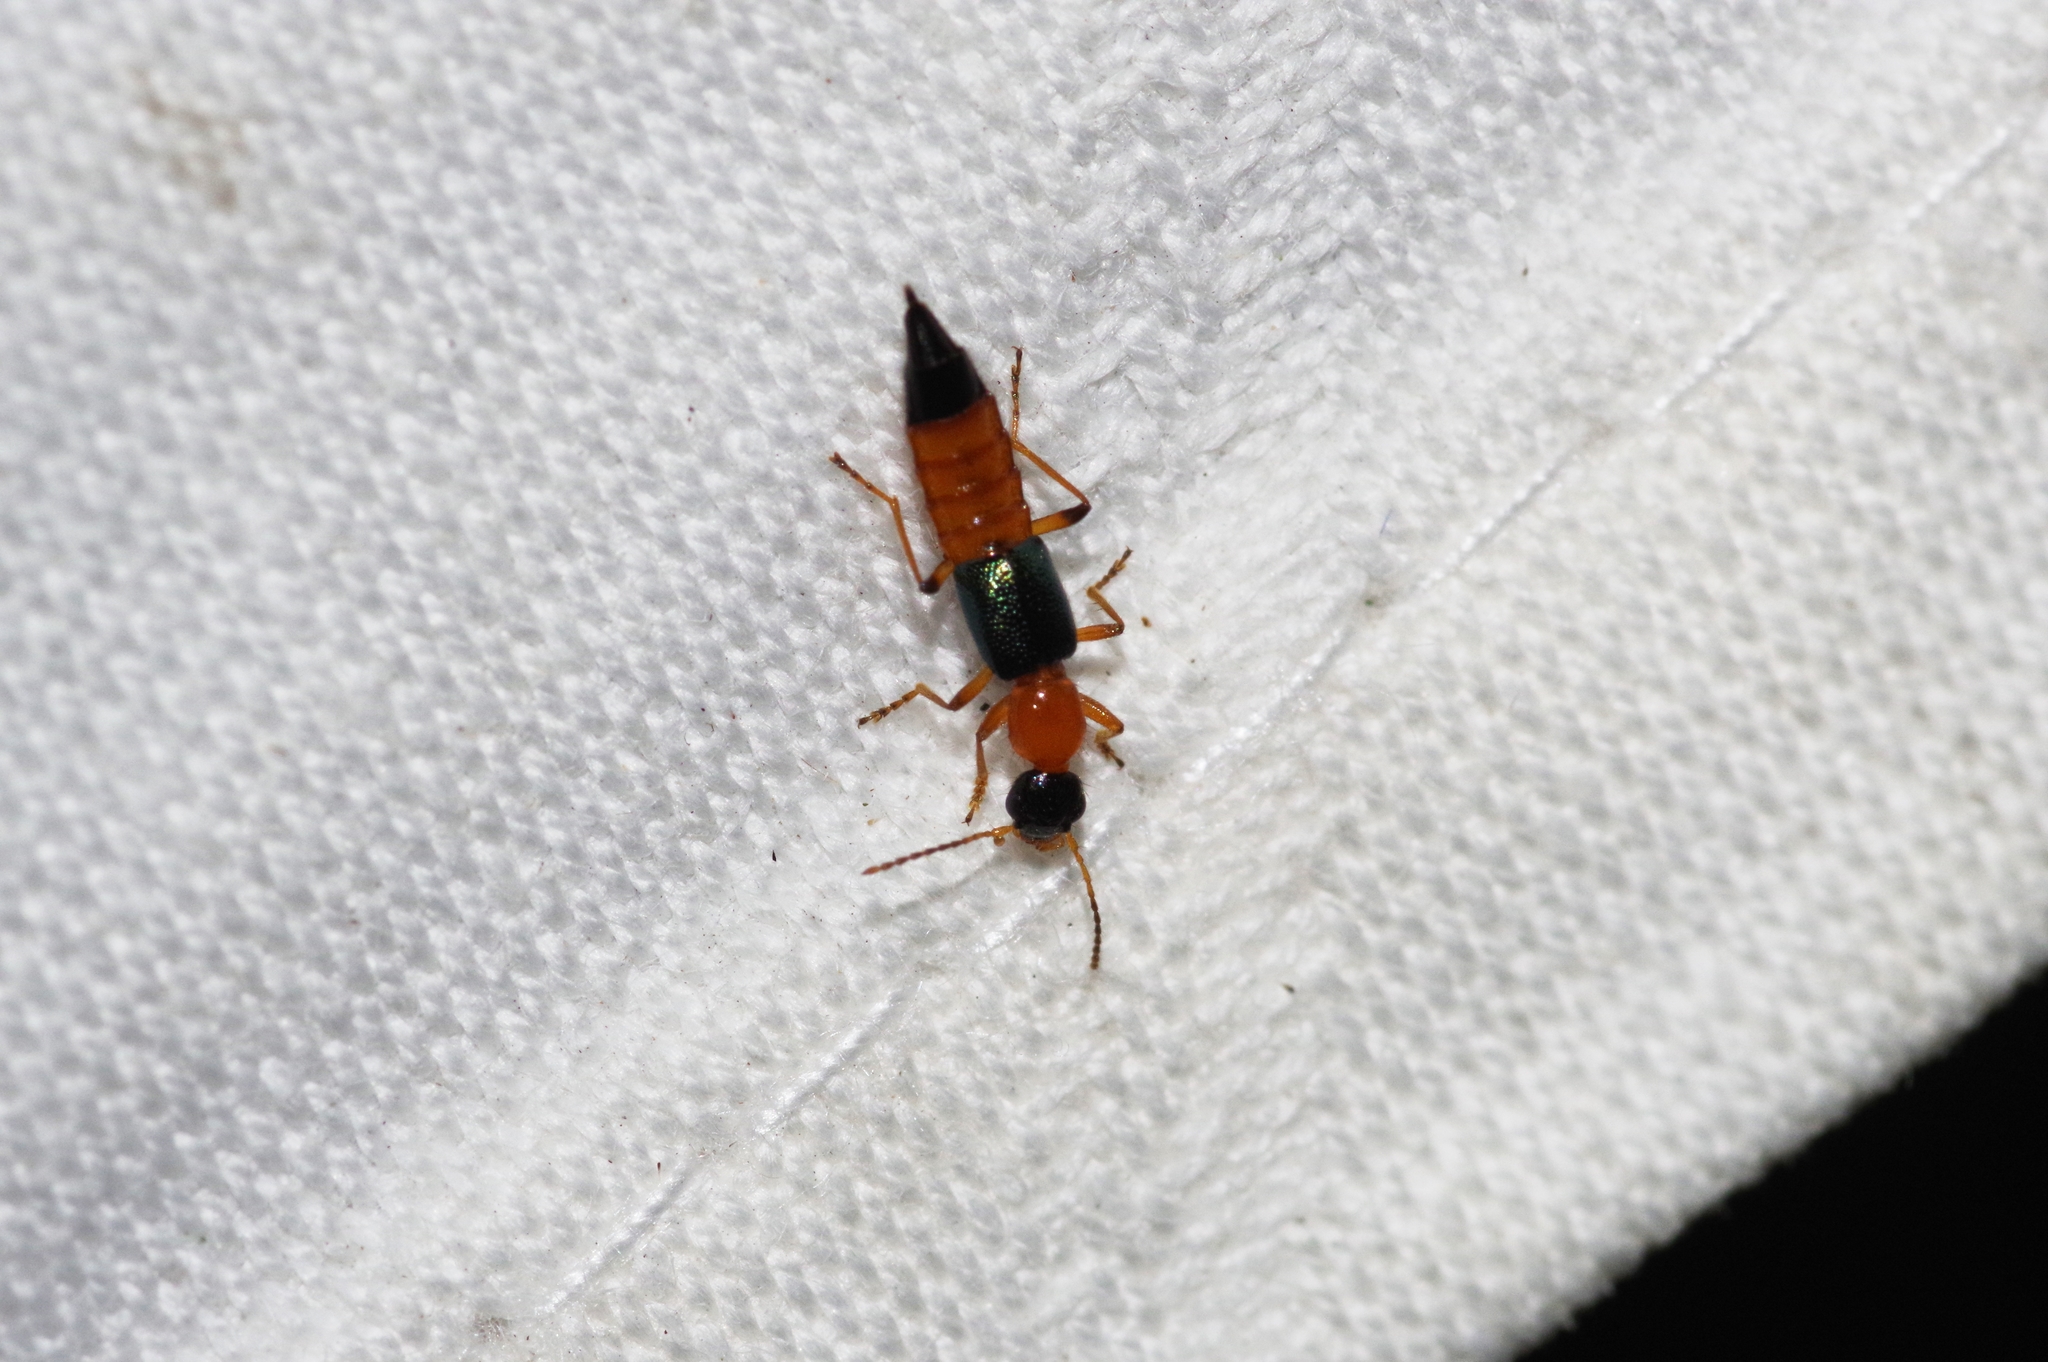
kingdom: Animalia
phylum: Arthropoda
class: Insecta
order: Coleoptera
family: Staphylinidae
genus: Paederus
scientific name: Paederus fuscipes
